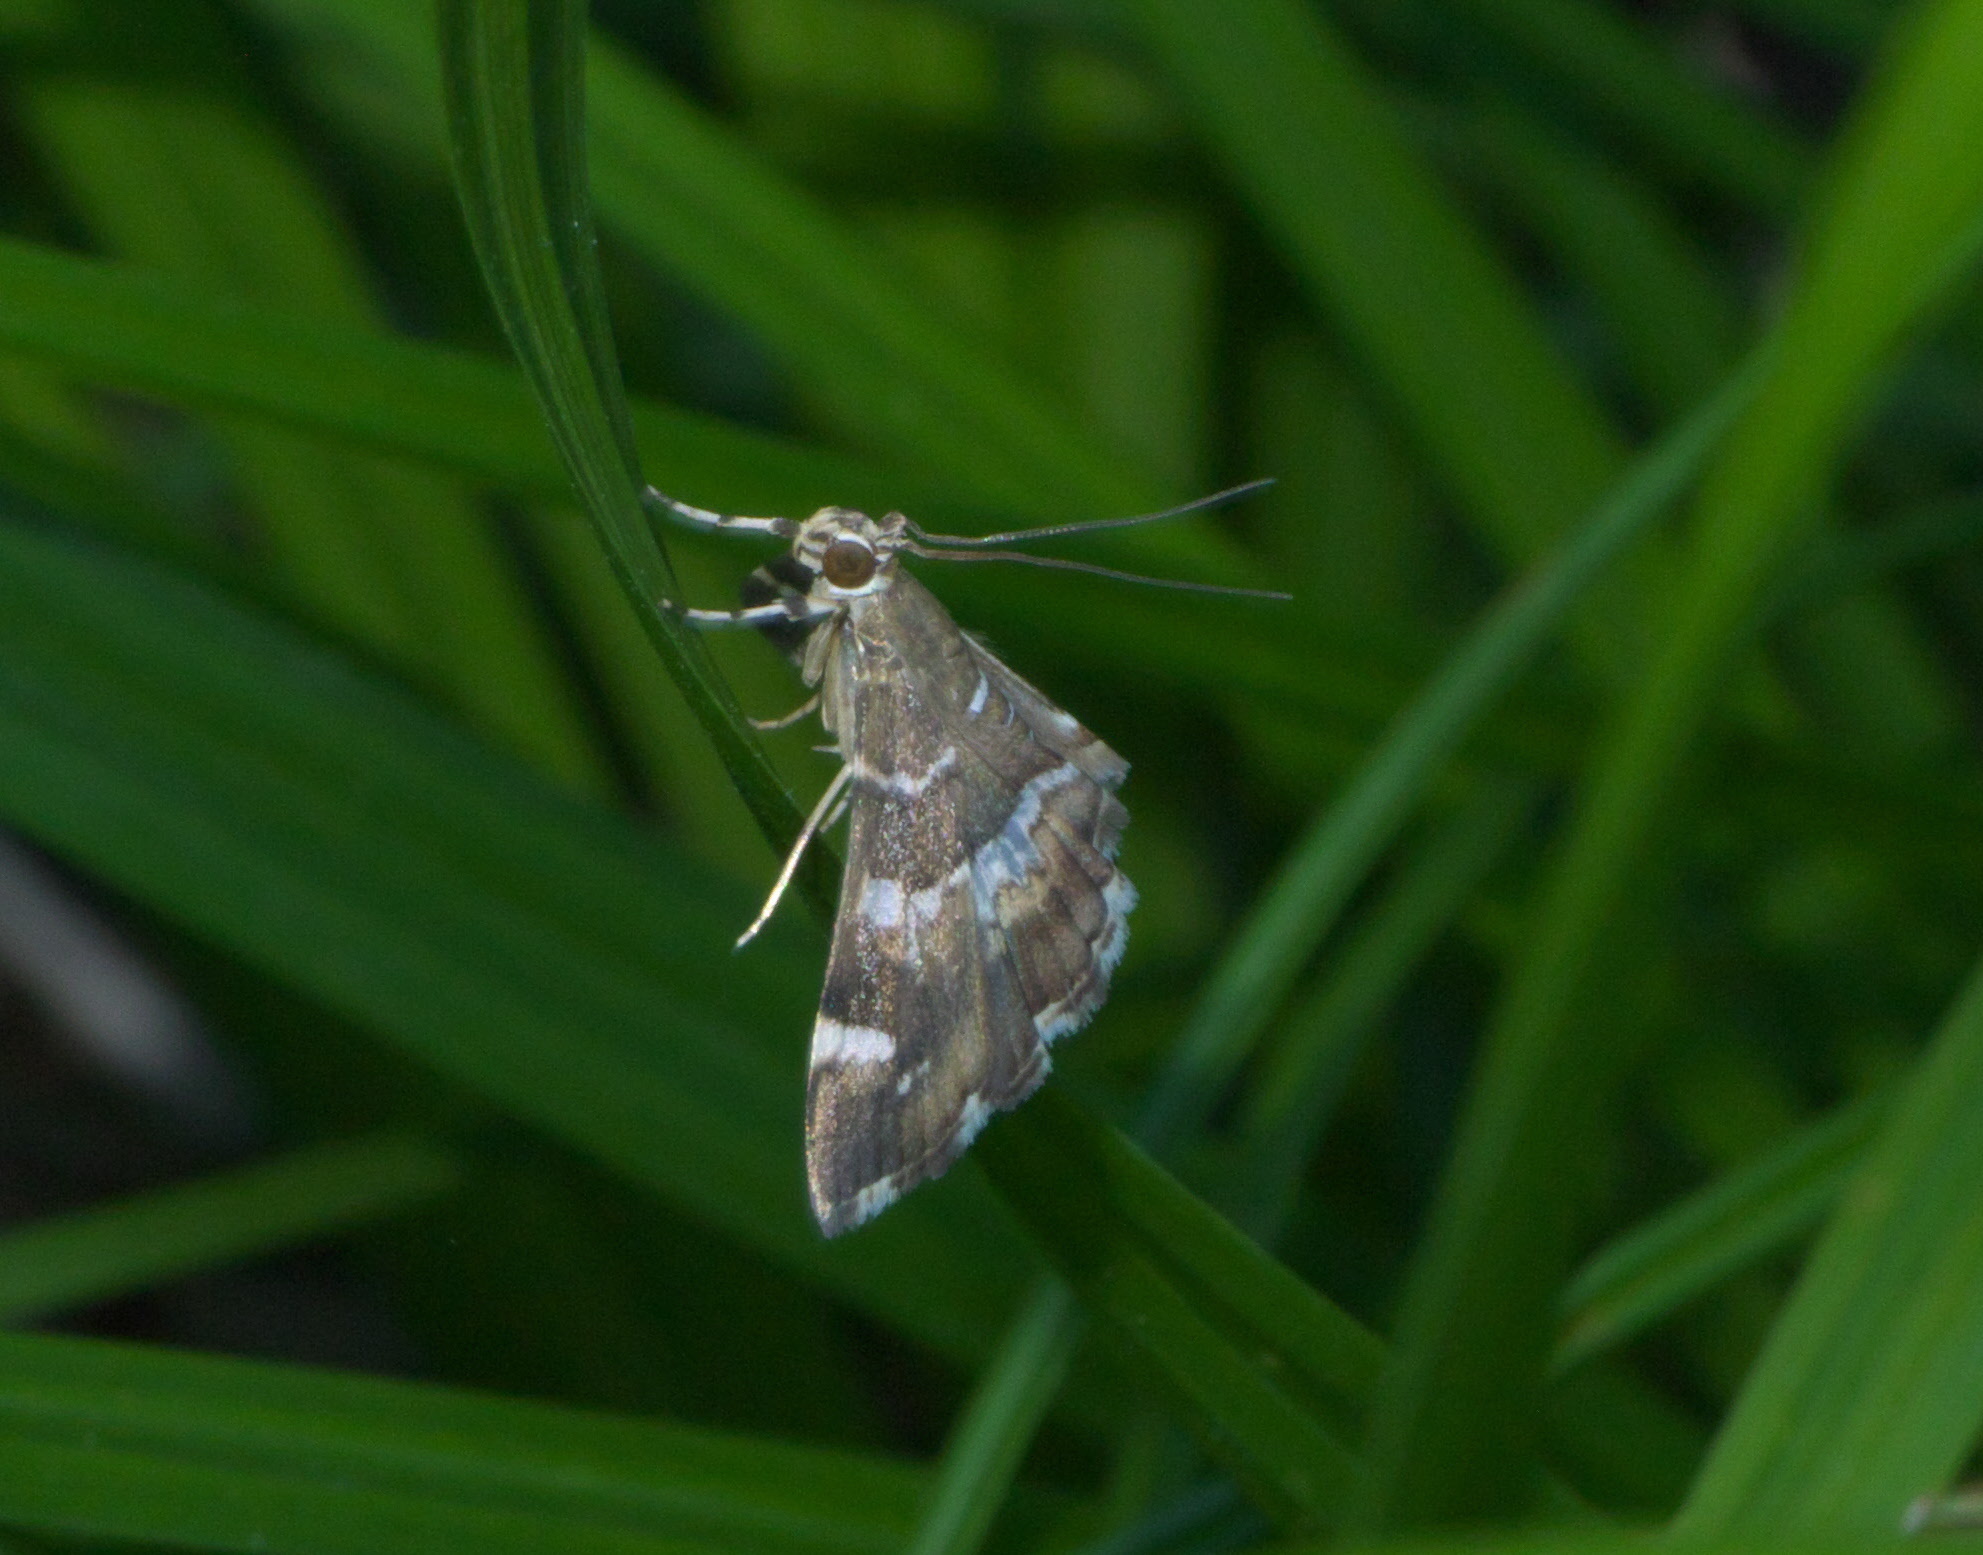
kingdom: Animalia
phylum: Arthropoda
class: Insecta
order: Lepidoptera
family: Crambidae
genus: Hymenia
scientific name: Hymenia perspectalis
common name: Spotted beet webworm
